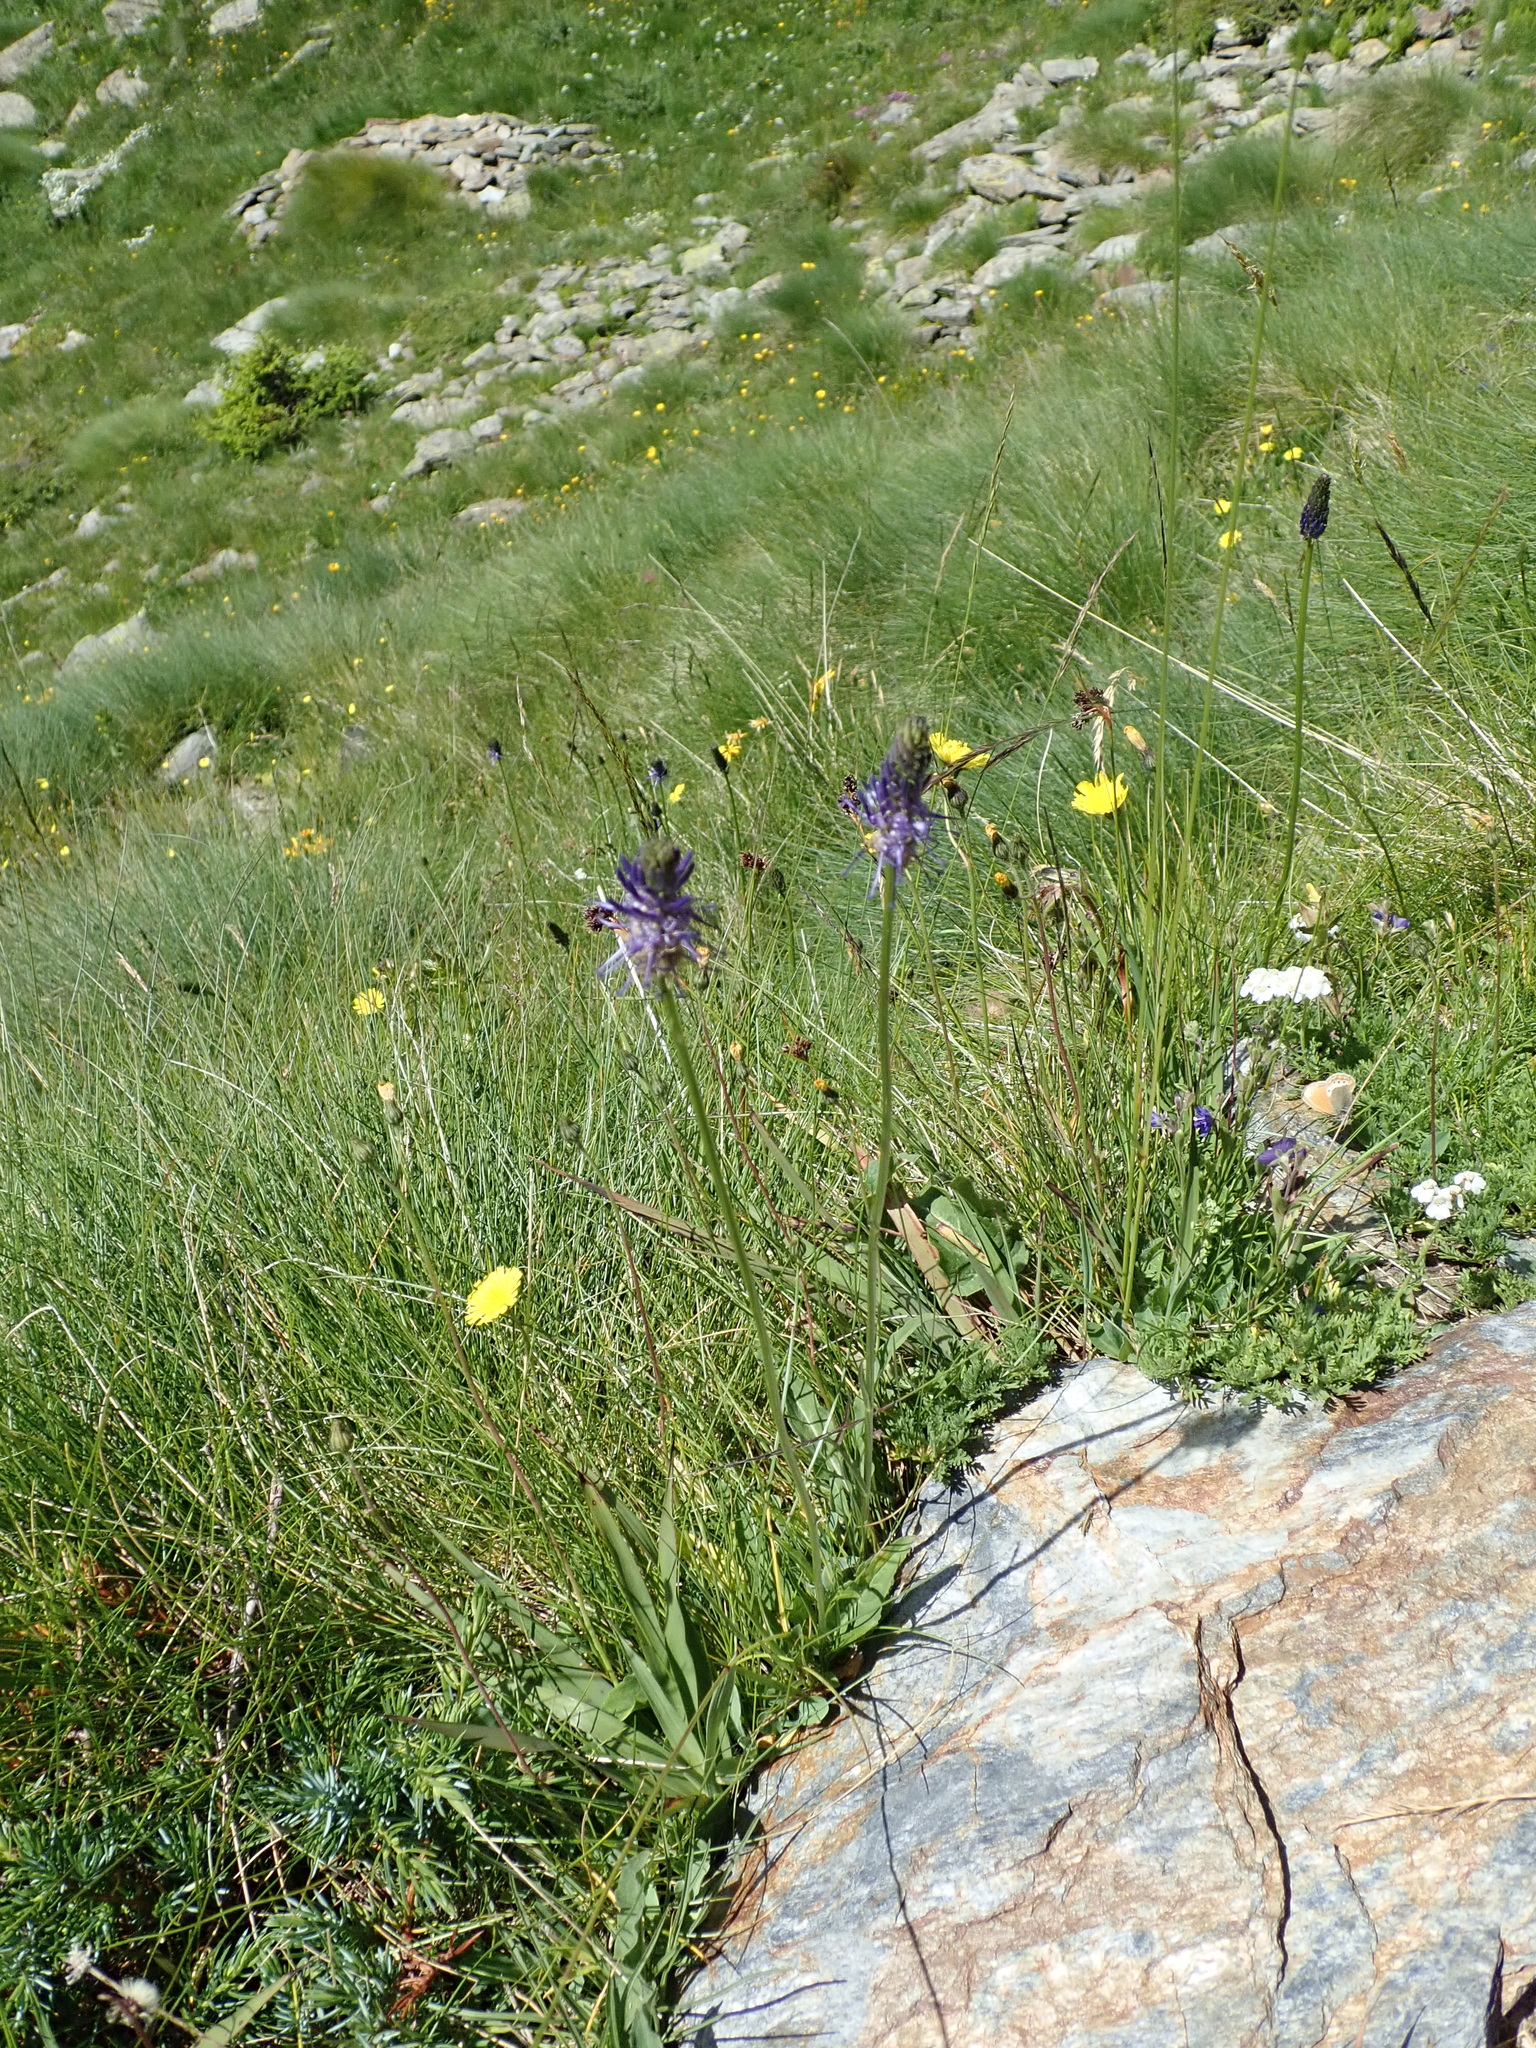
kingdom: Plantae
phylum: Tracheophyta
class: Magnoliopsida
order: Asterales
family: Campanulaceae
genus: Phyteuma
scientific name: Phyteuma betonicifolium
